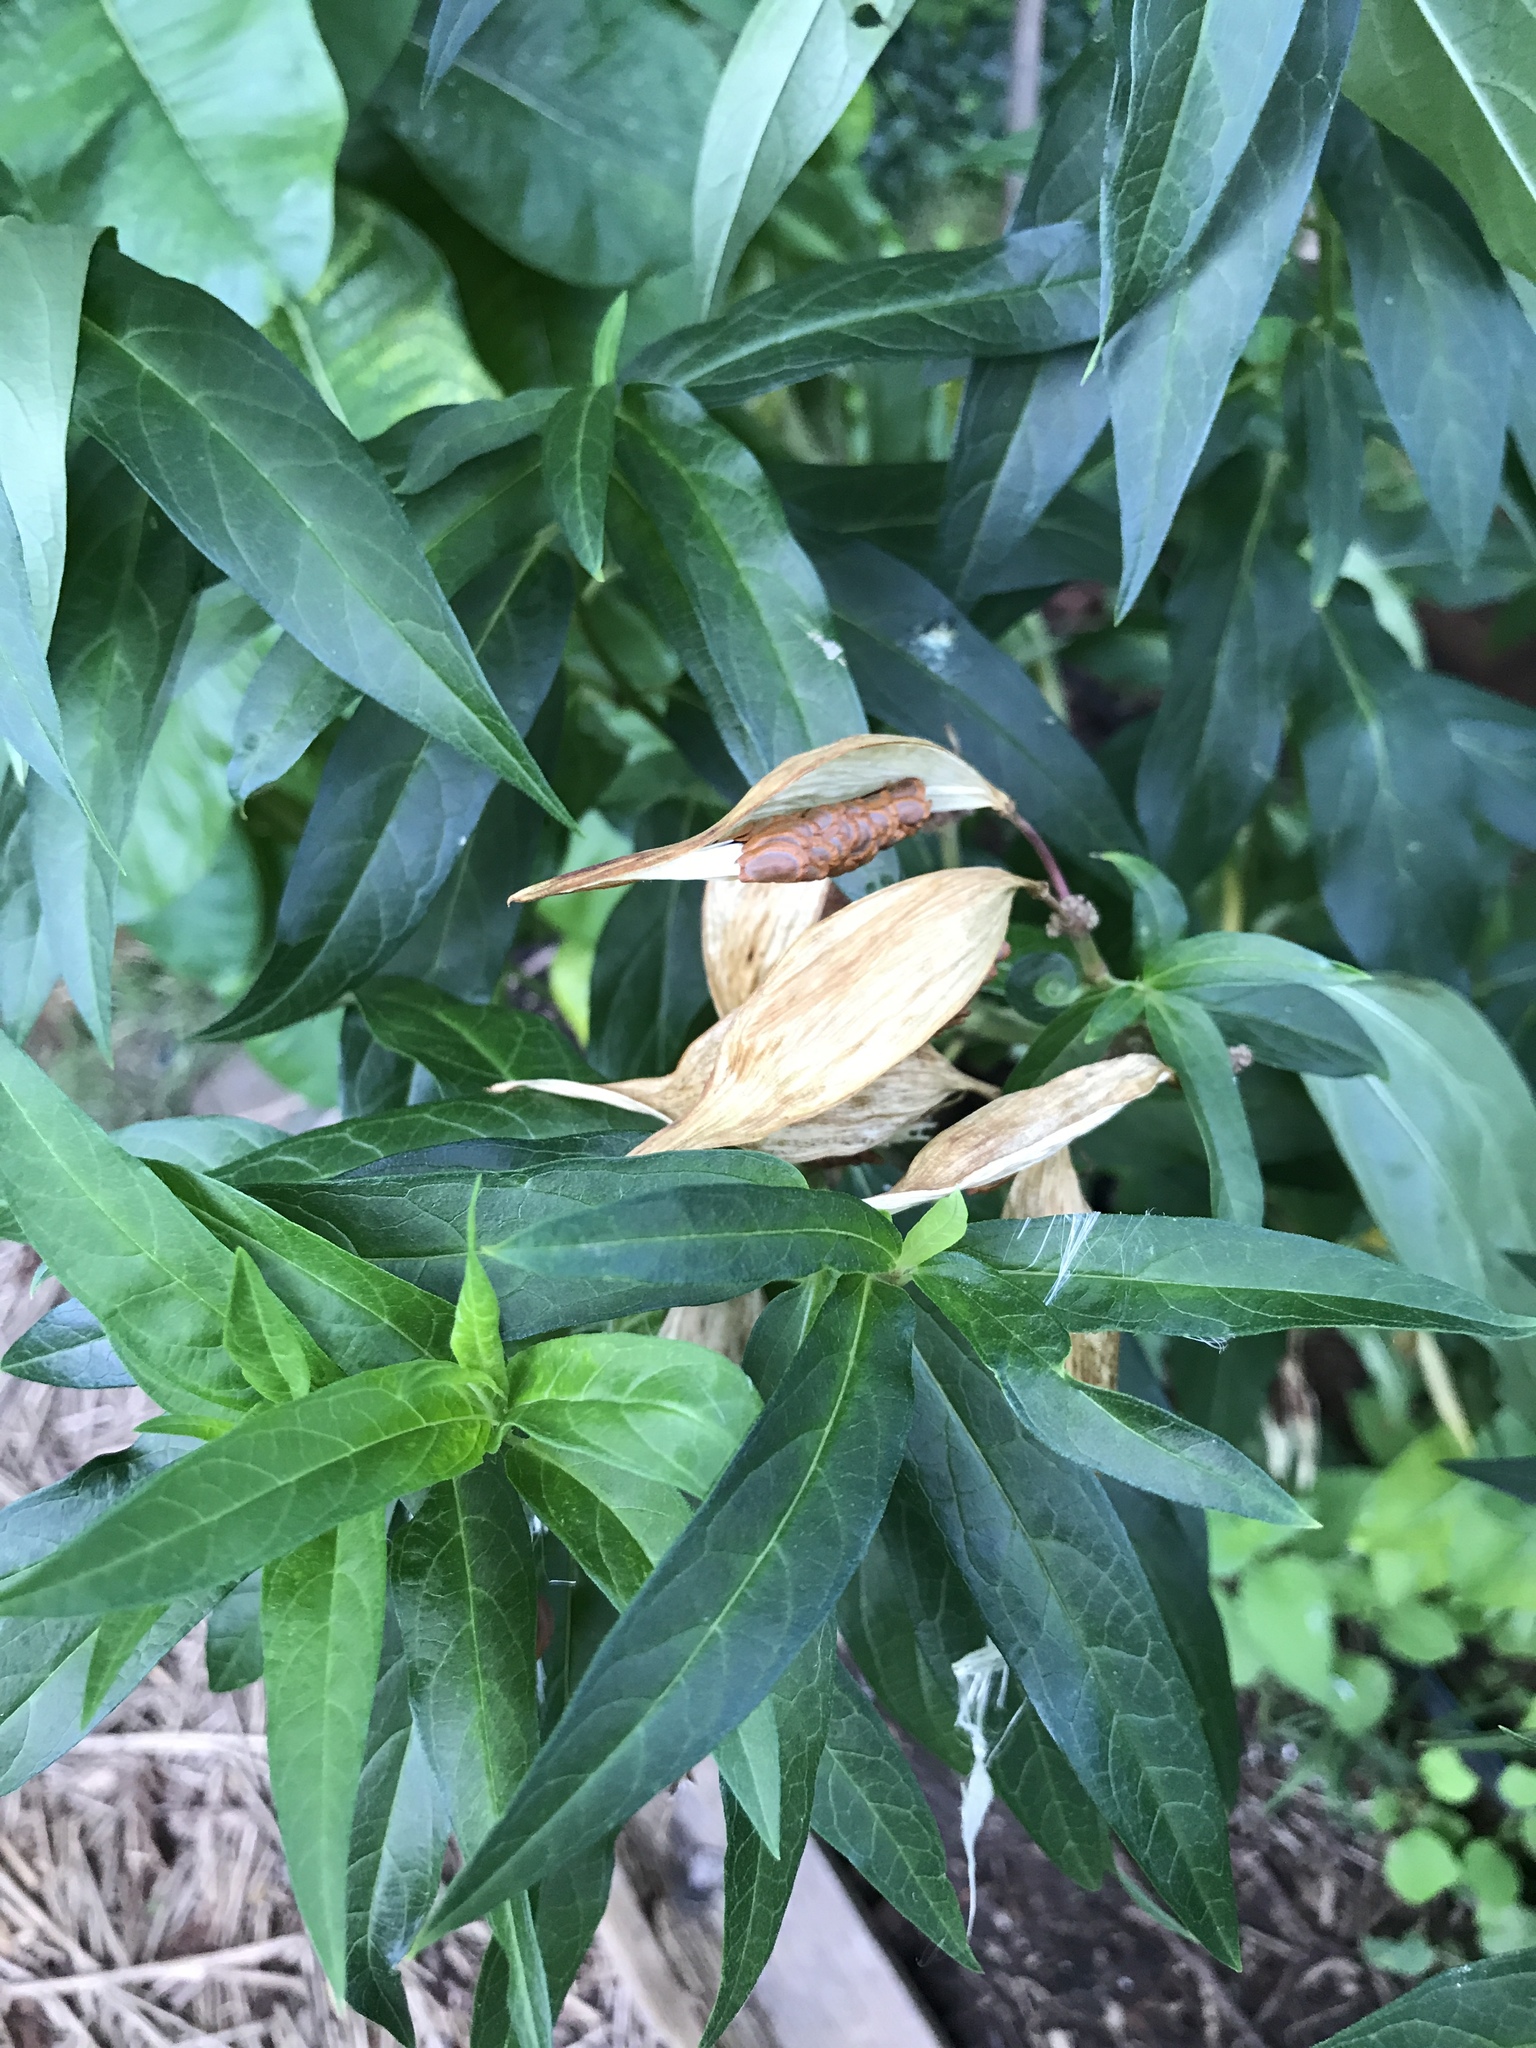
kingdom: Plantae
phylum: Tracheophyta
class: Magnoliopsida
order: Gentianales
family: Apocynaceae
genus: Asclepias
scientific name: Asclepias incarnata
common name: Swamp milkweed
